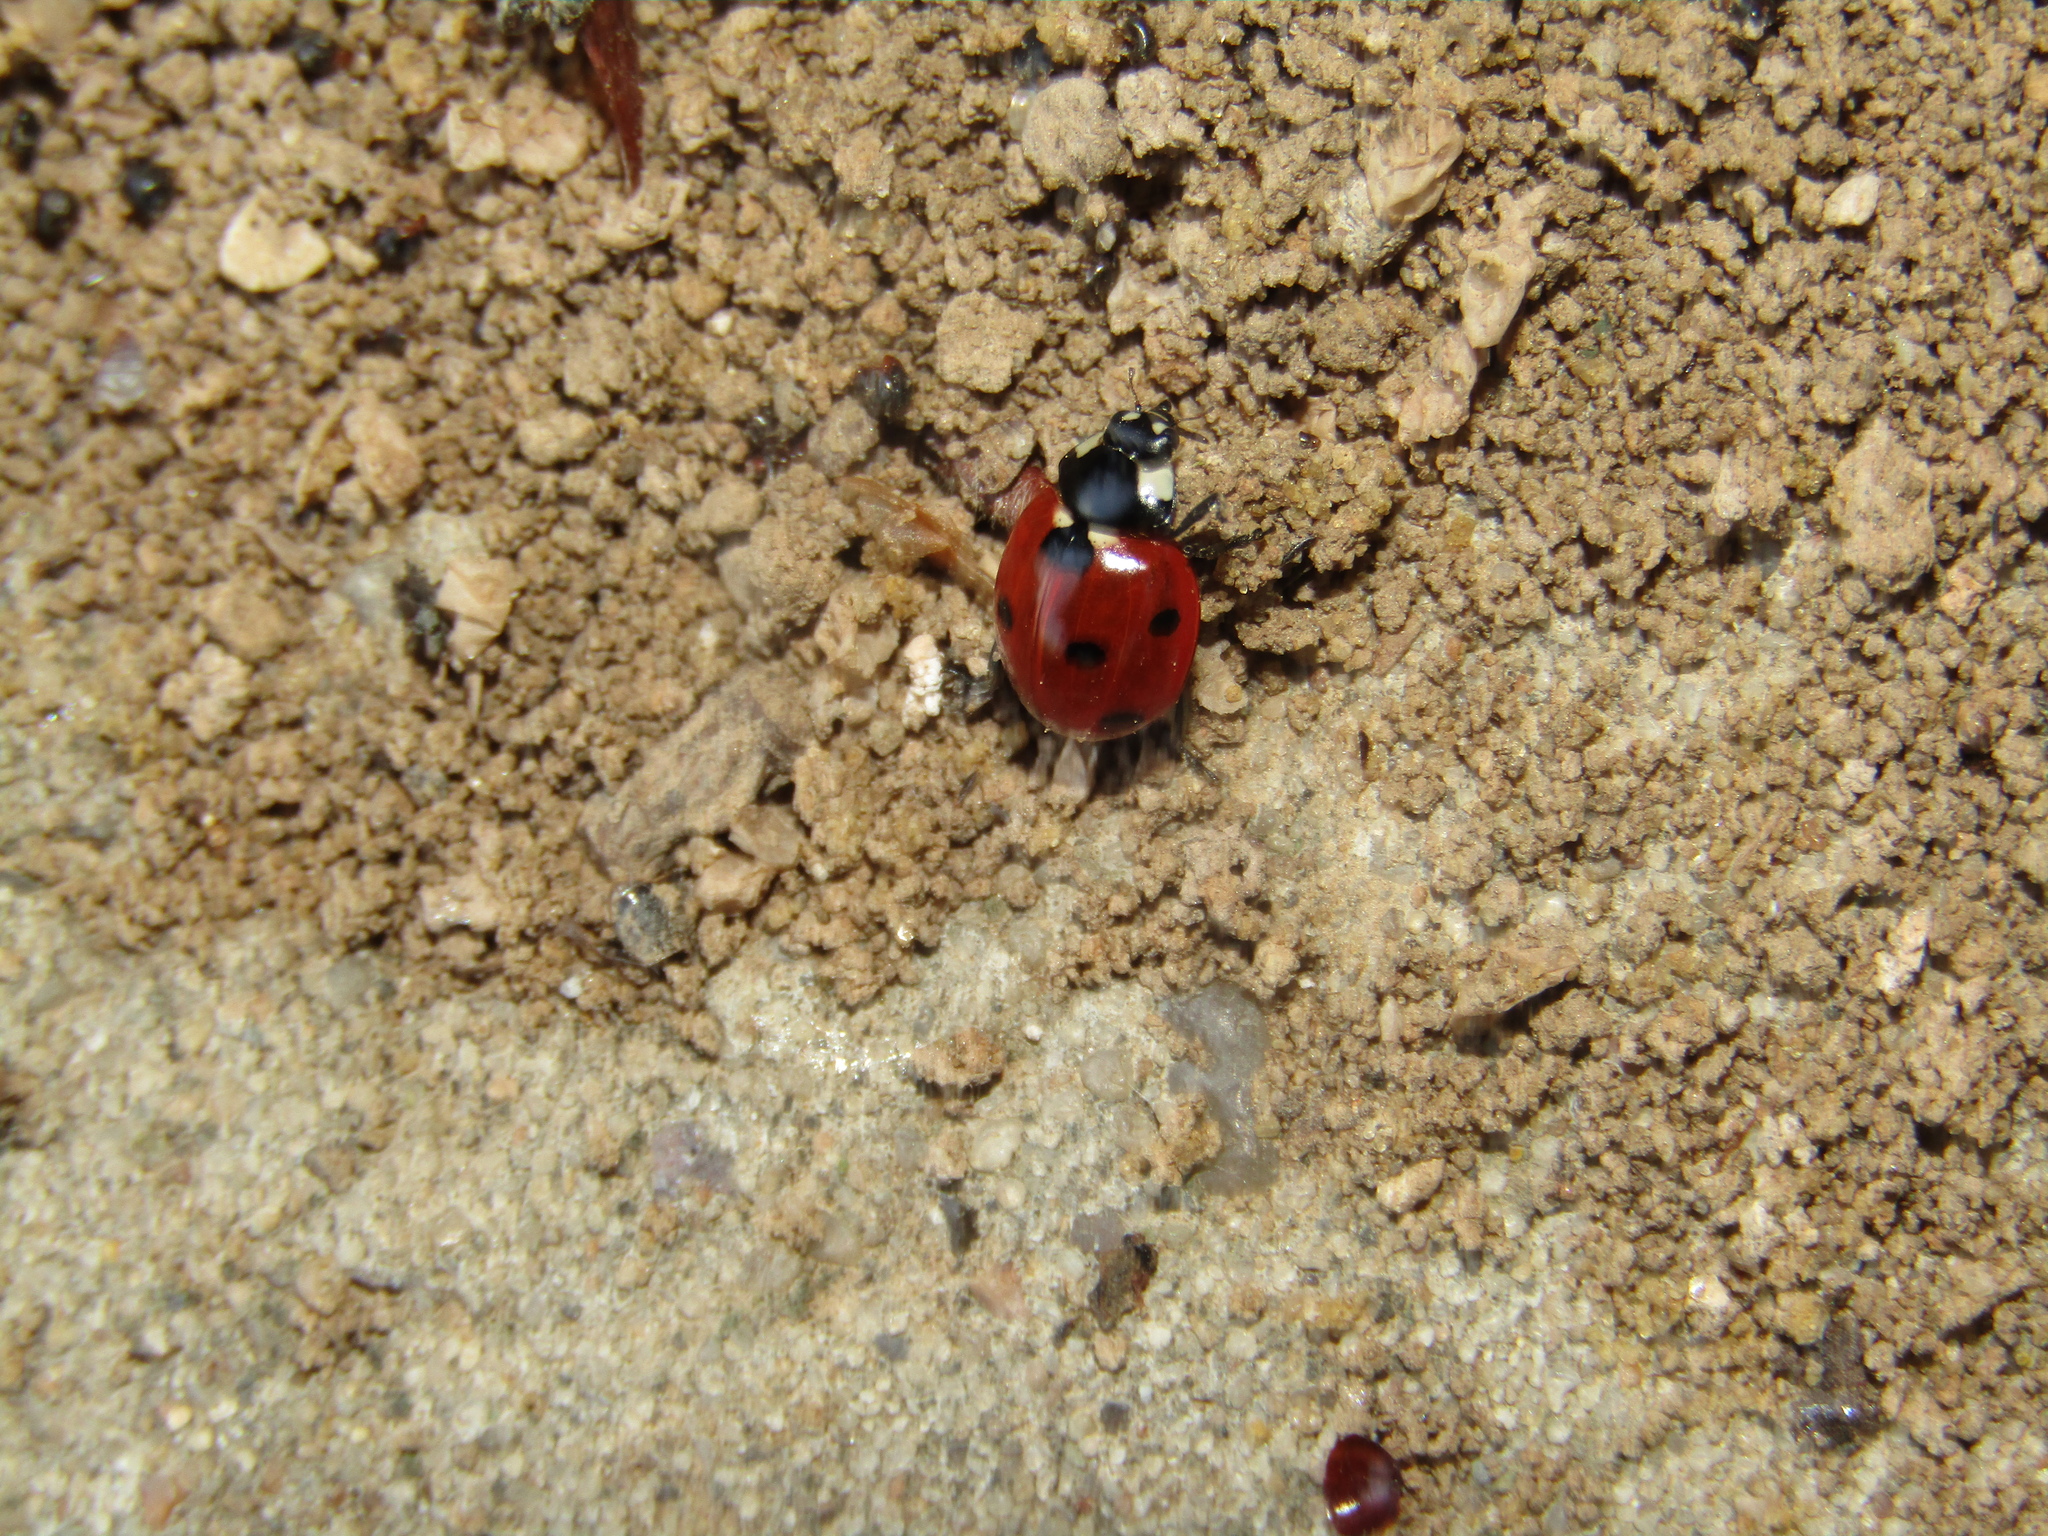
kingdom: Animalia
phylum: Arthropoda
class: Insecta
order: Coleoptera
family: Coccinellidae
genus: Coccinella
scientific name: Coccinella septempunctata
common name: Sevenspotted lady beetle
